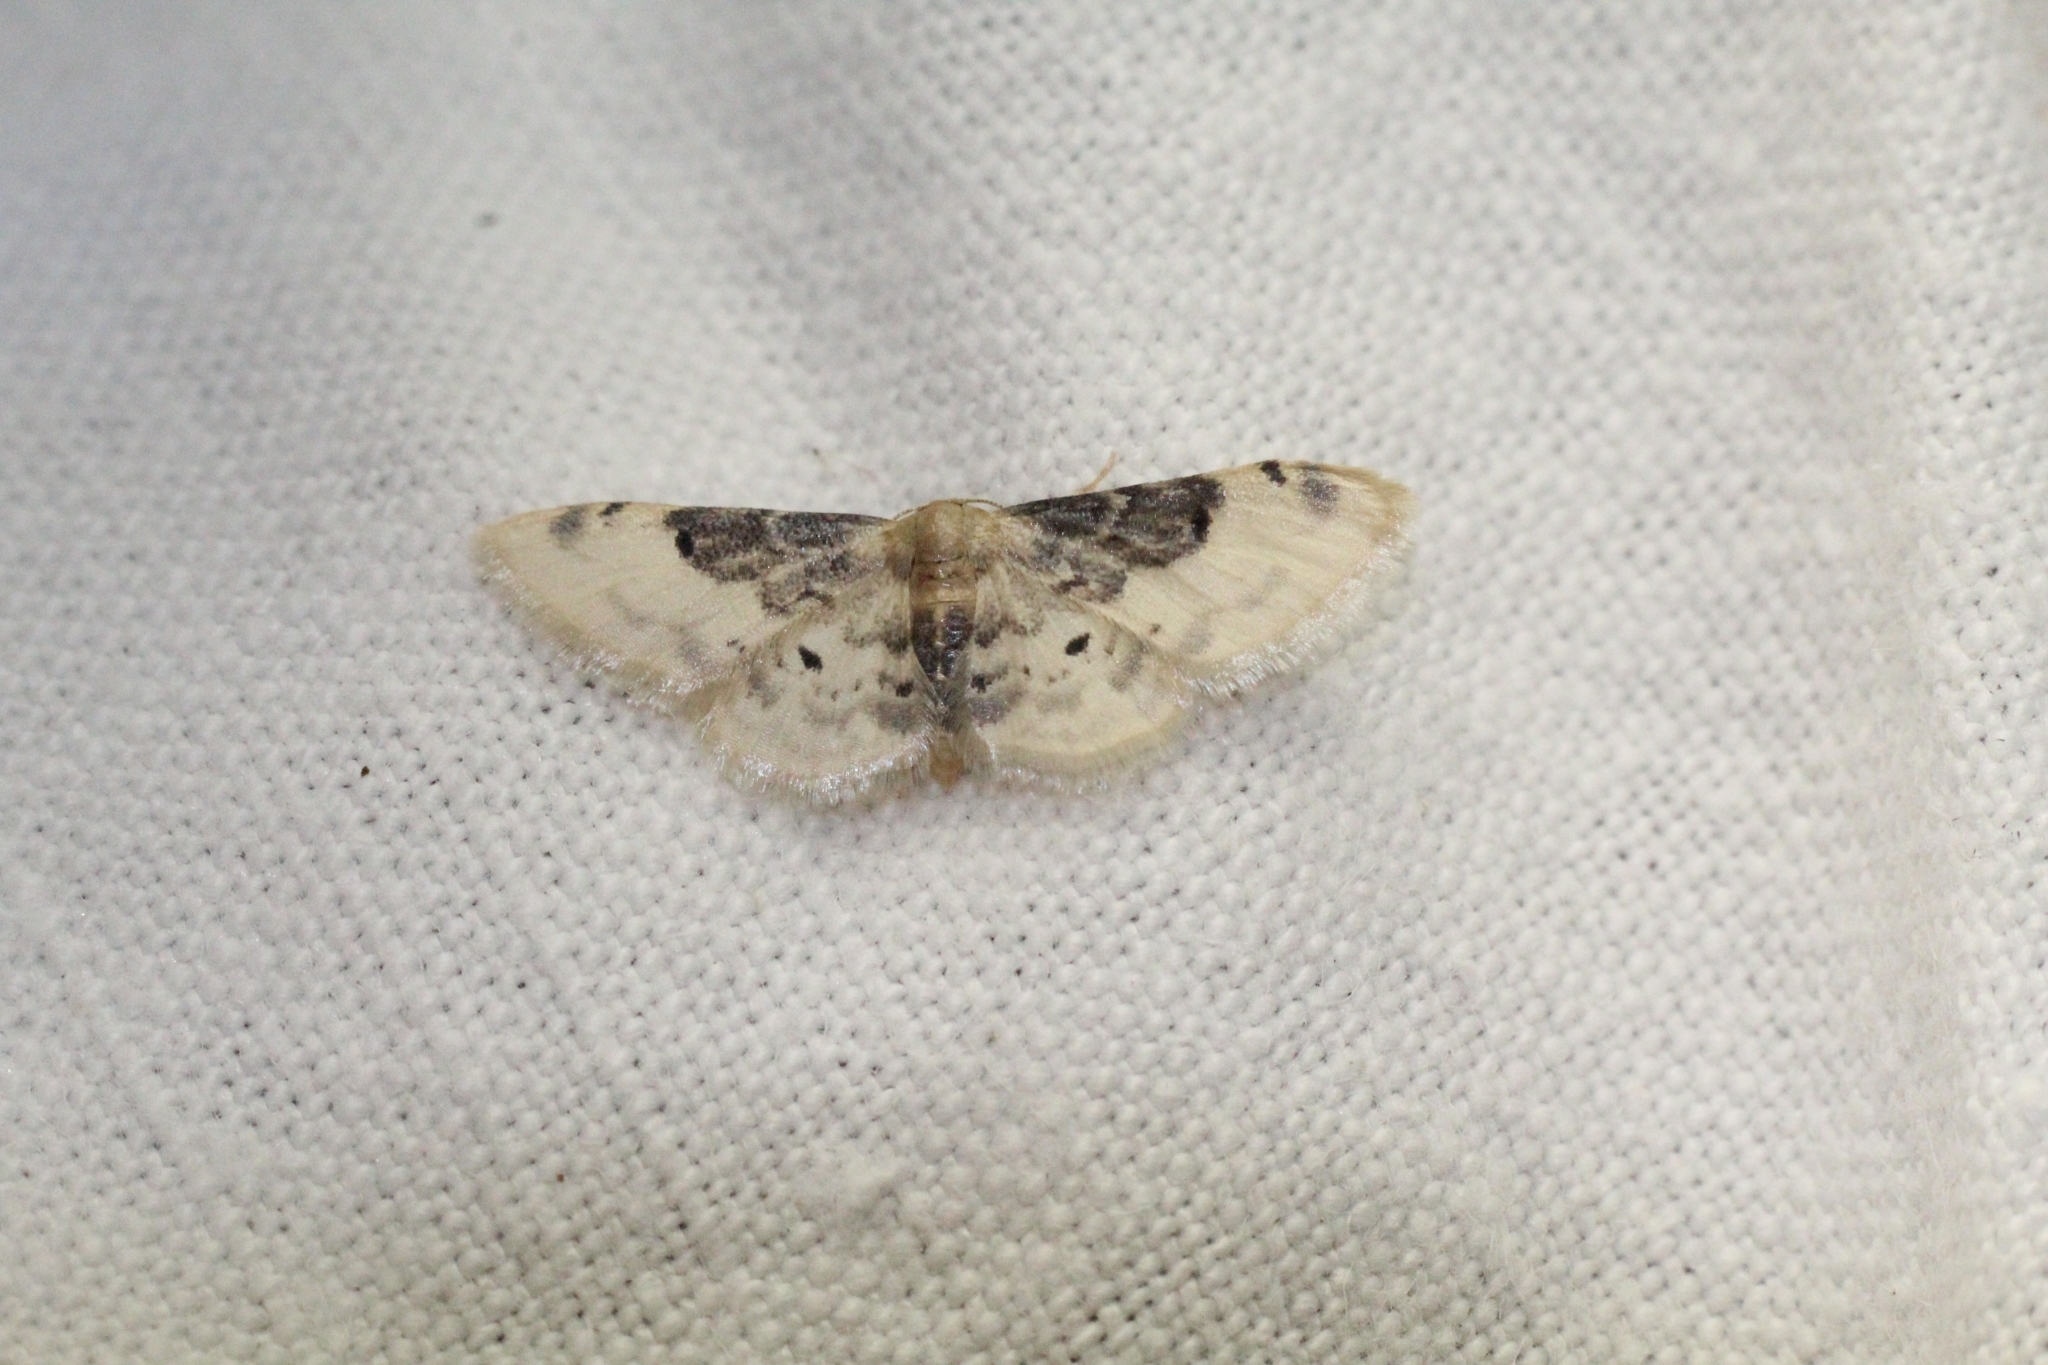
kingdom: Animalia
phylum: Arthropoda
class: Insecta
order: Lepidoptera
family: Geometridae
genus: Idaea
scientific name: Idaea filicata
